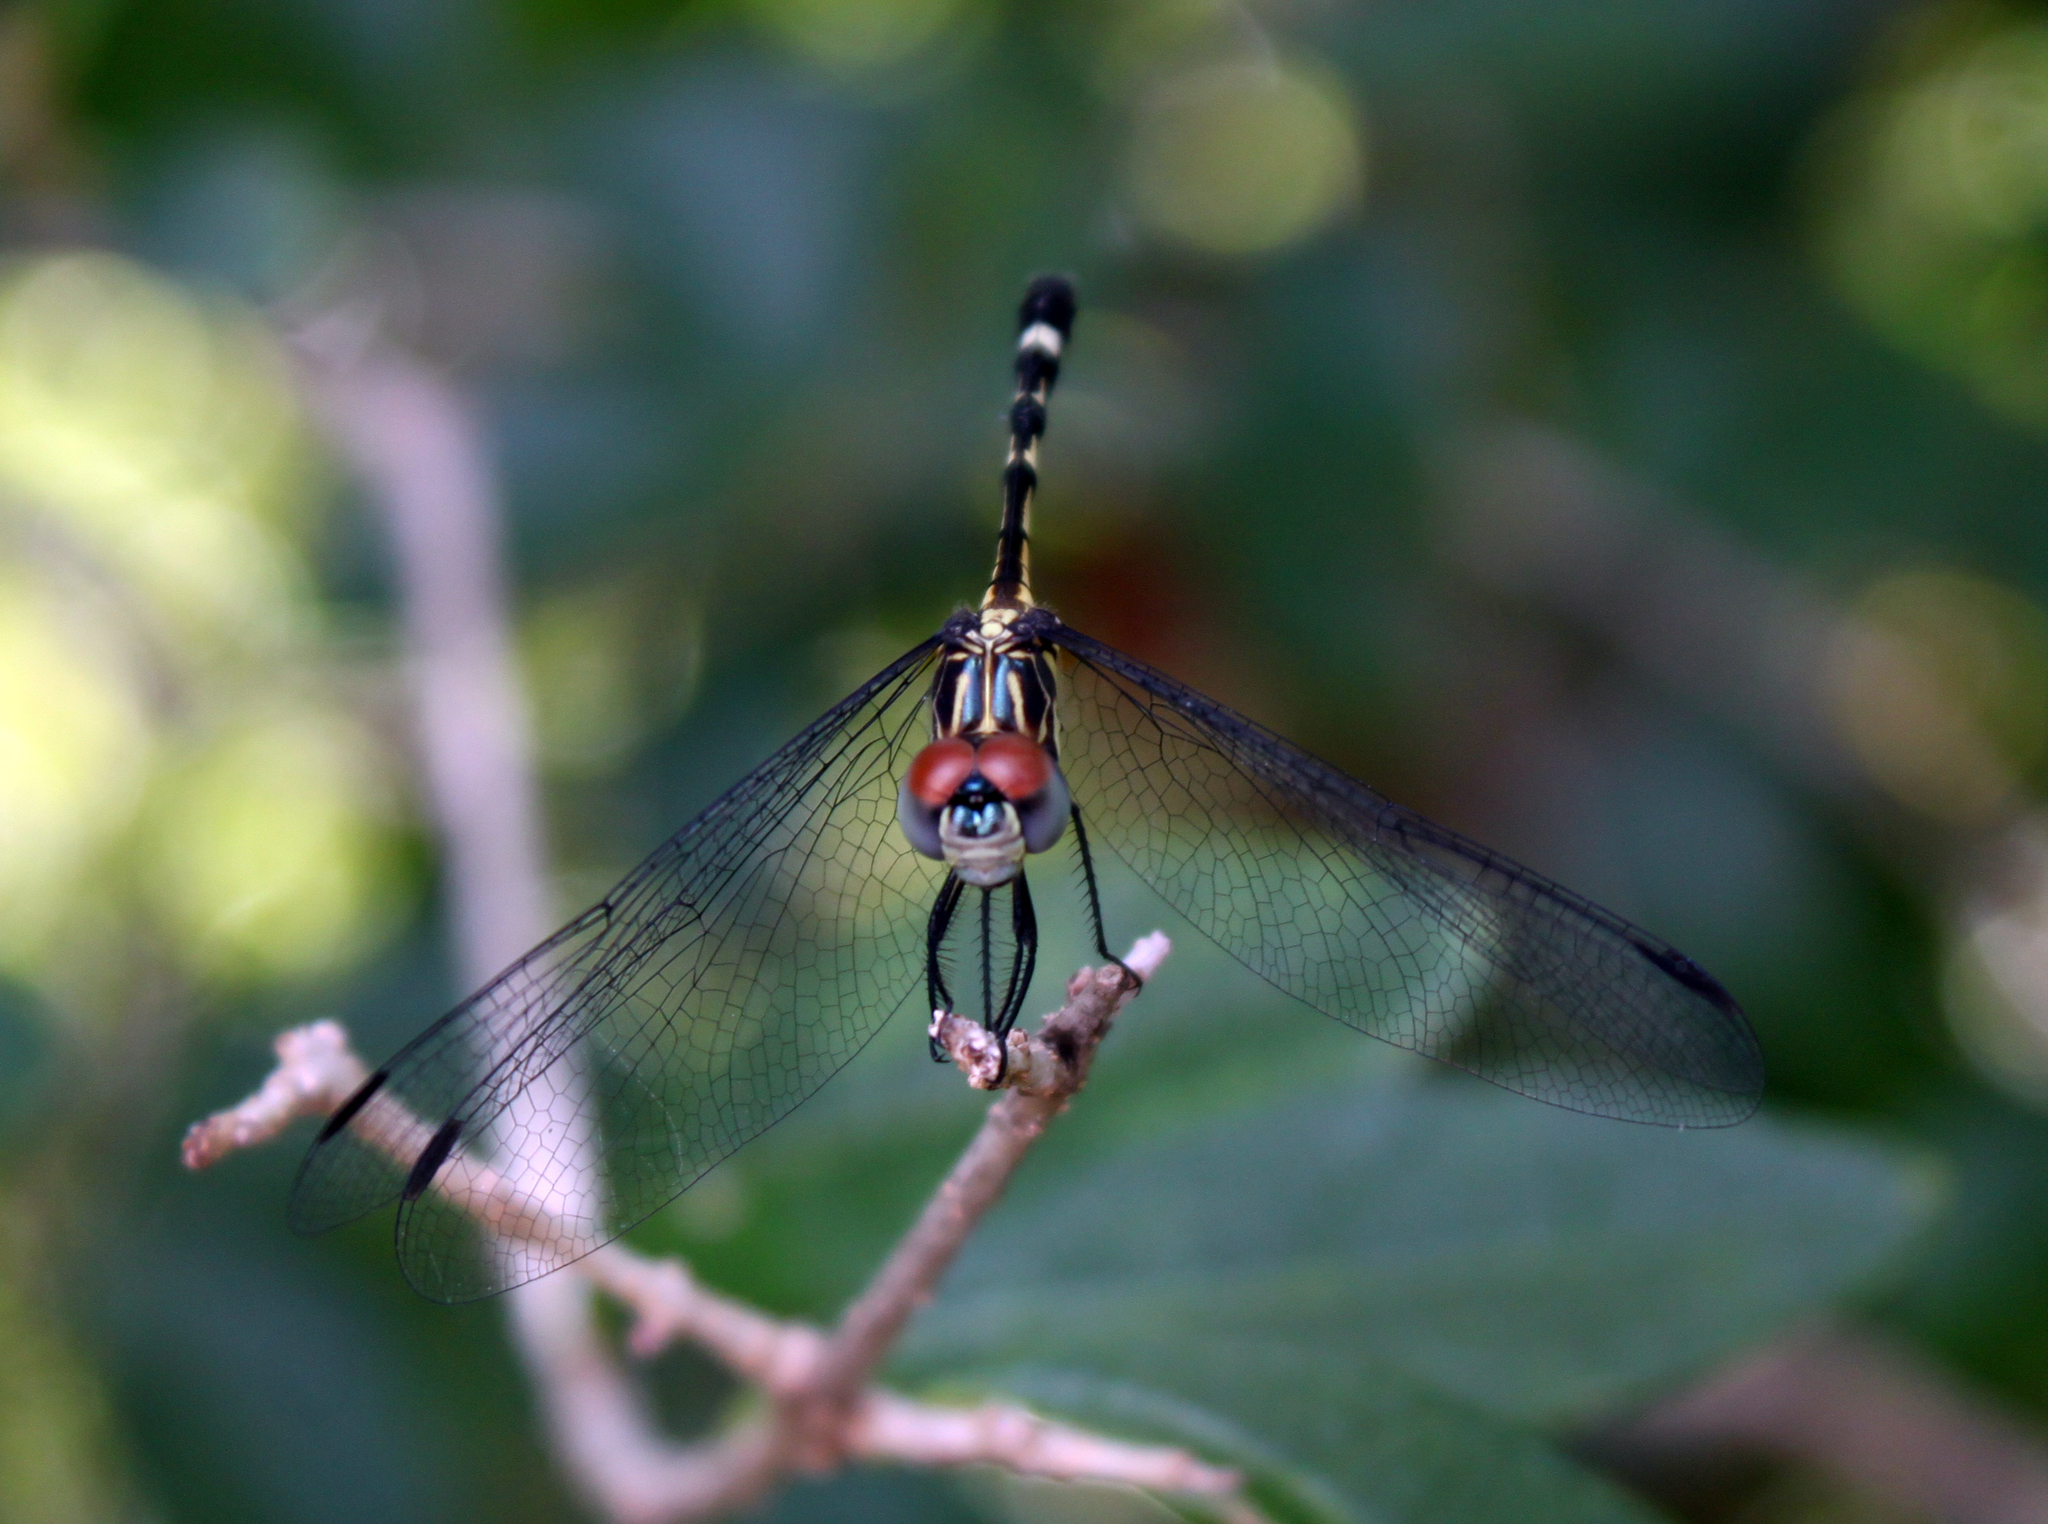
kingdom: Animalia
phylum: Arthropoda
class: Insecta
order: Odonata
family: Libellulidae
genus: Micrathyria
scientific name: Micrathyria didyma
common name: Three-striped dasher
